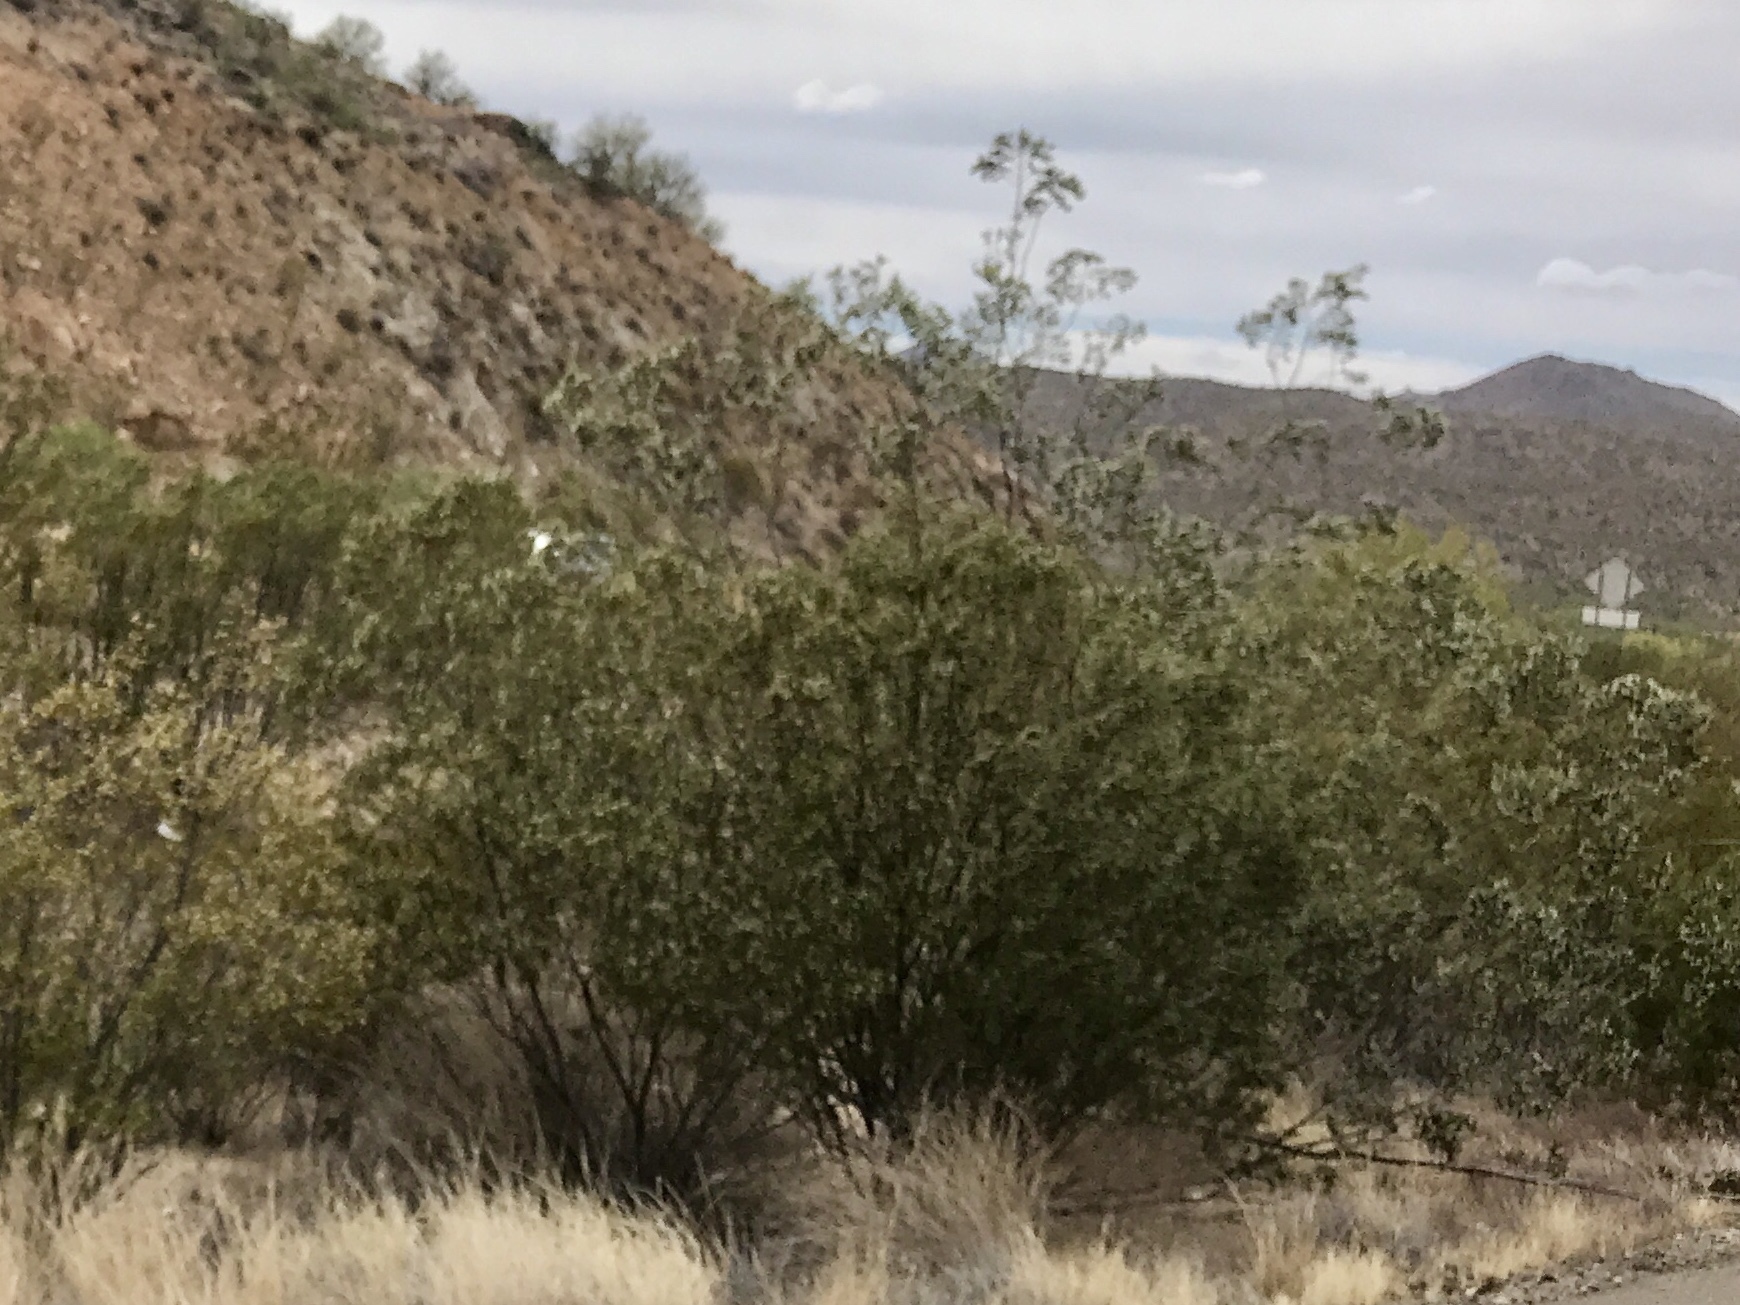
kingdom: Plantae
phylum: Tracheophyta
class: Magnoliopsida
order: Zygophyllales
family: Zygophyllaceae
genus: Larrea
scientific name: Larrea tridentata
